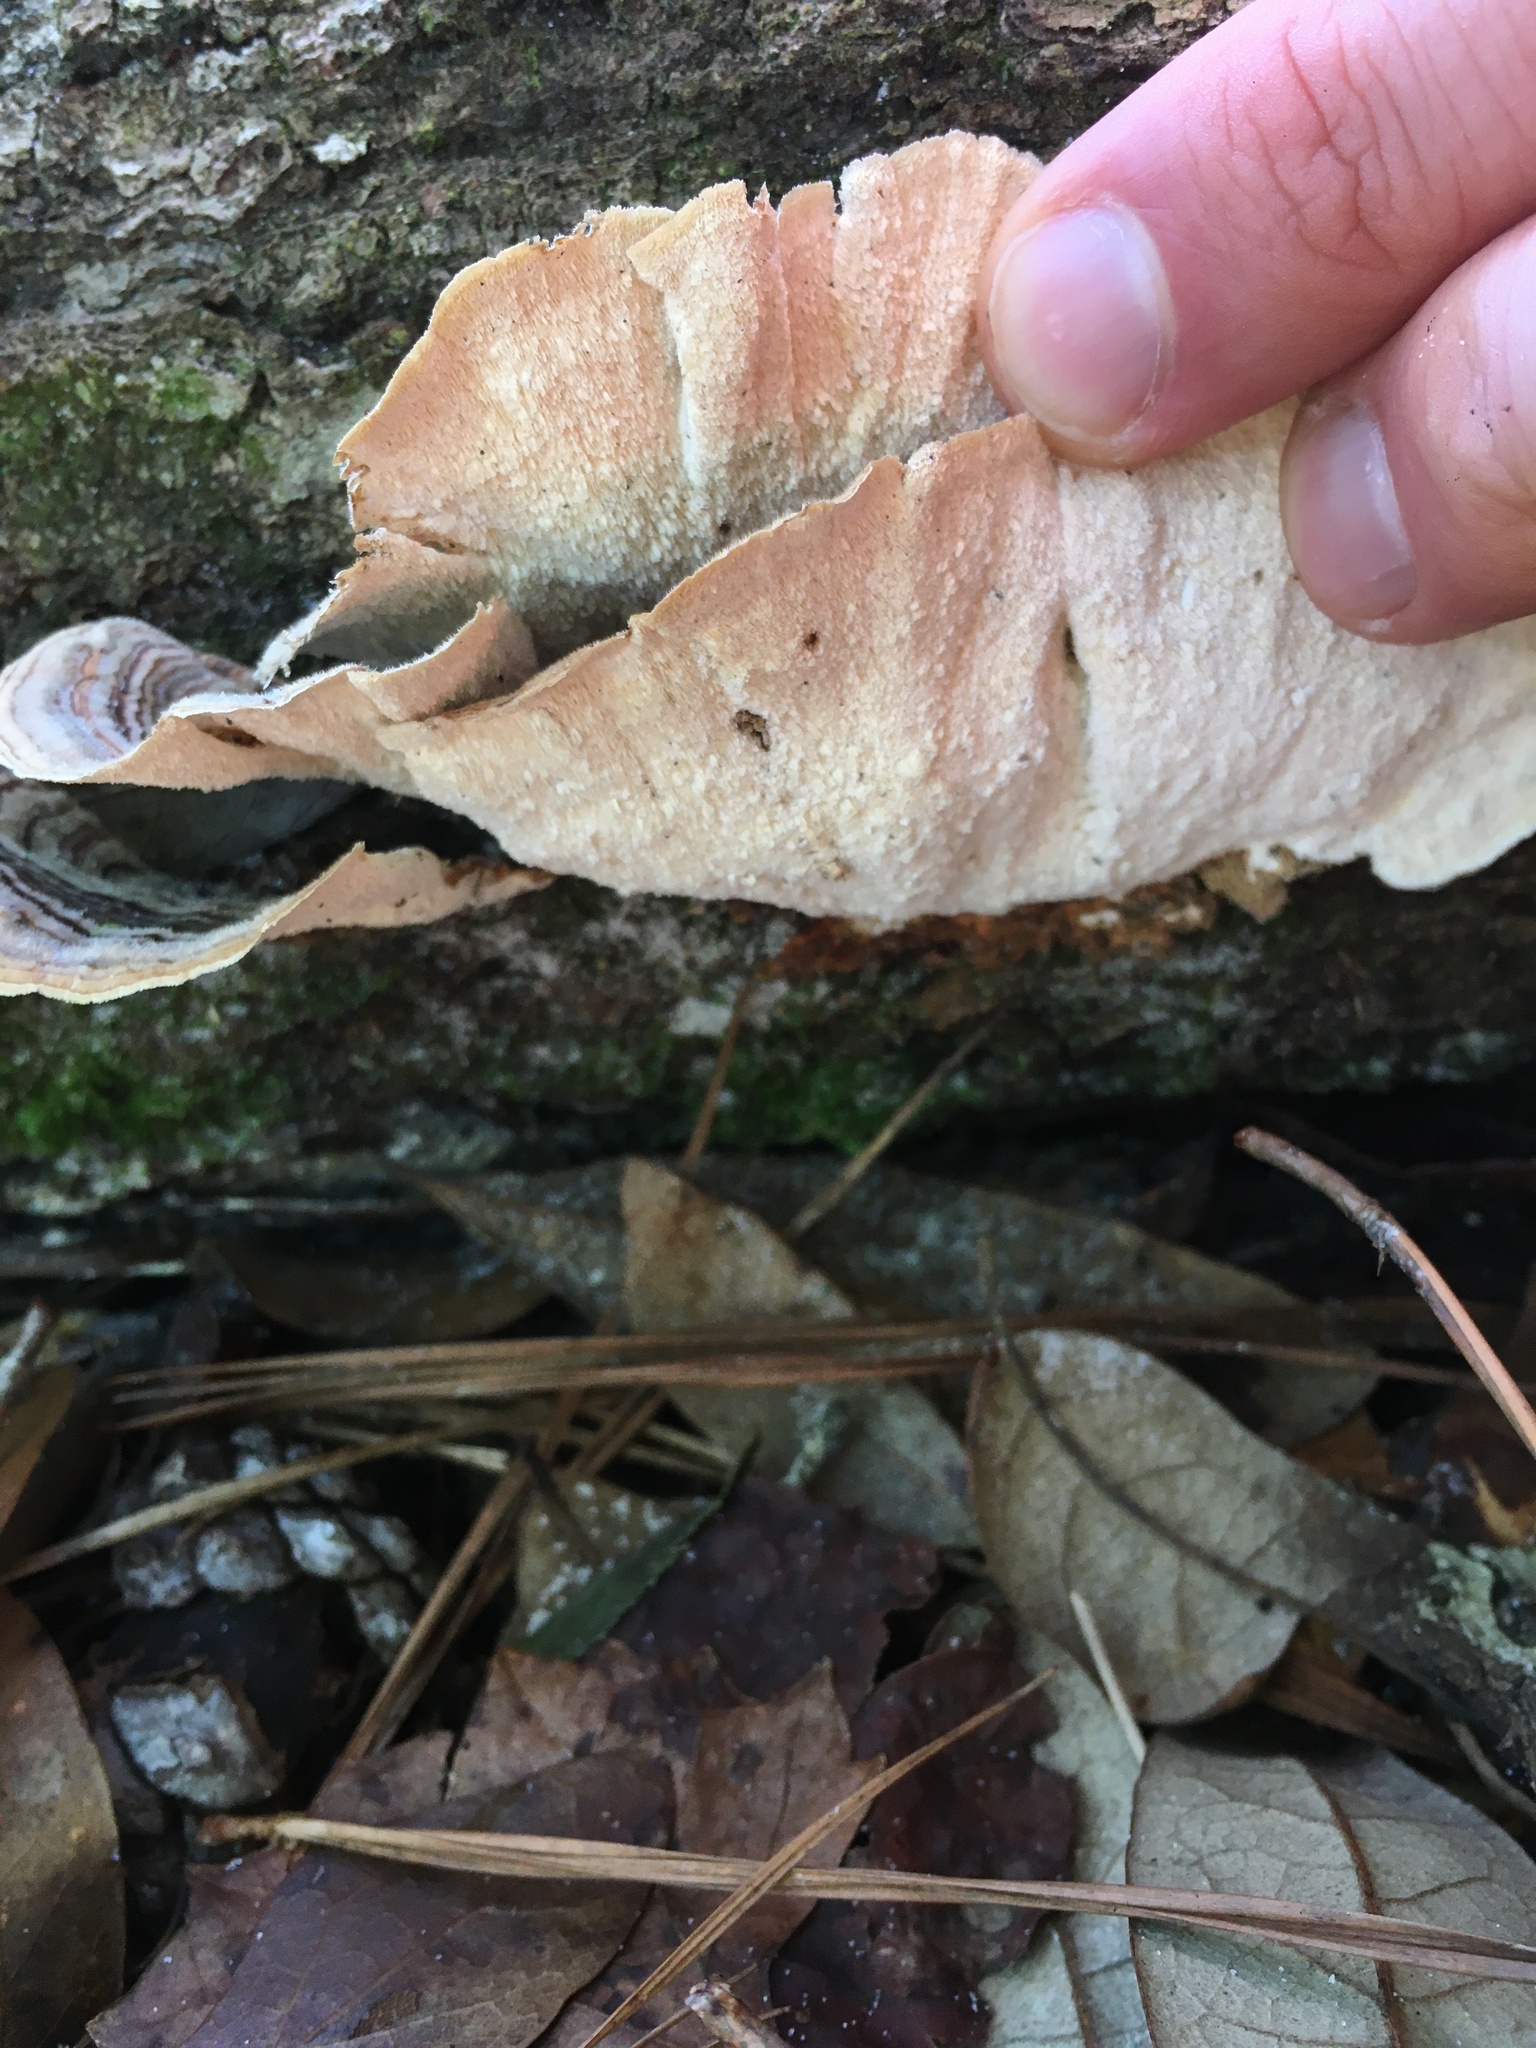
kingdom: Fungi
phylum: Basidiomycota
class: Agaricomycetes
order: Polyporales
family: Polyporaceae
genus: Trametes
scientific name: Trametes versicolor
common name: Turkeytail
